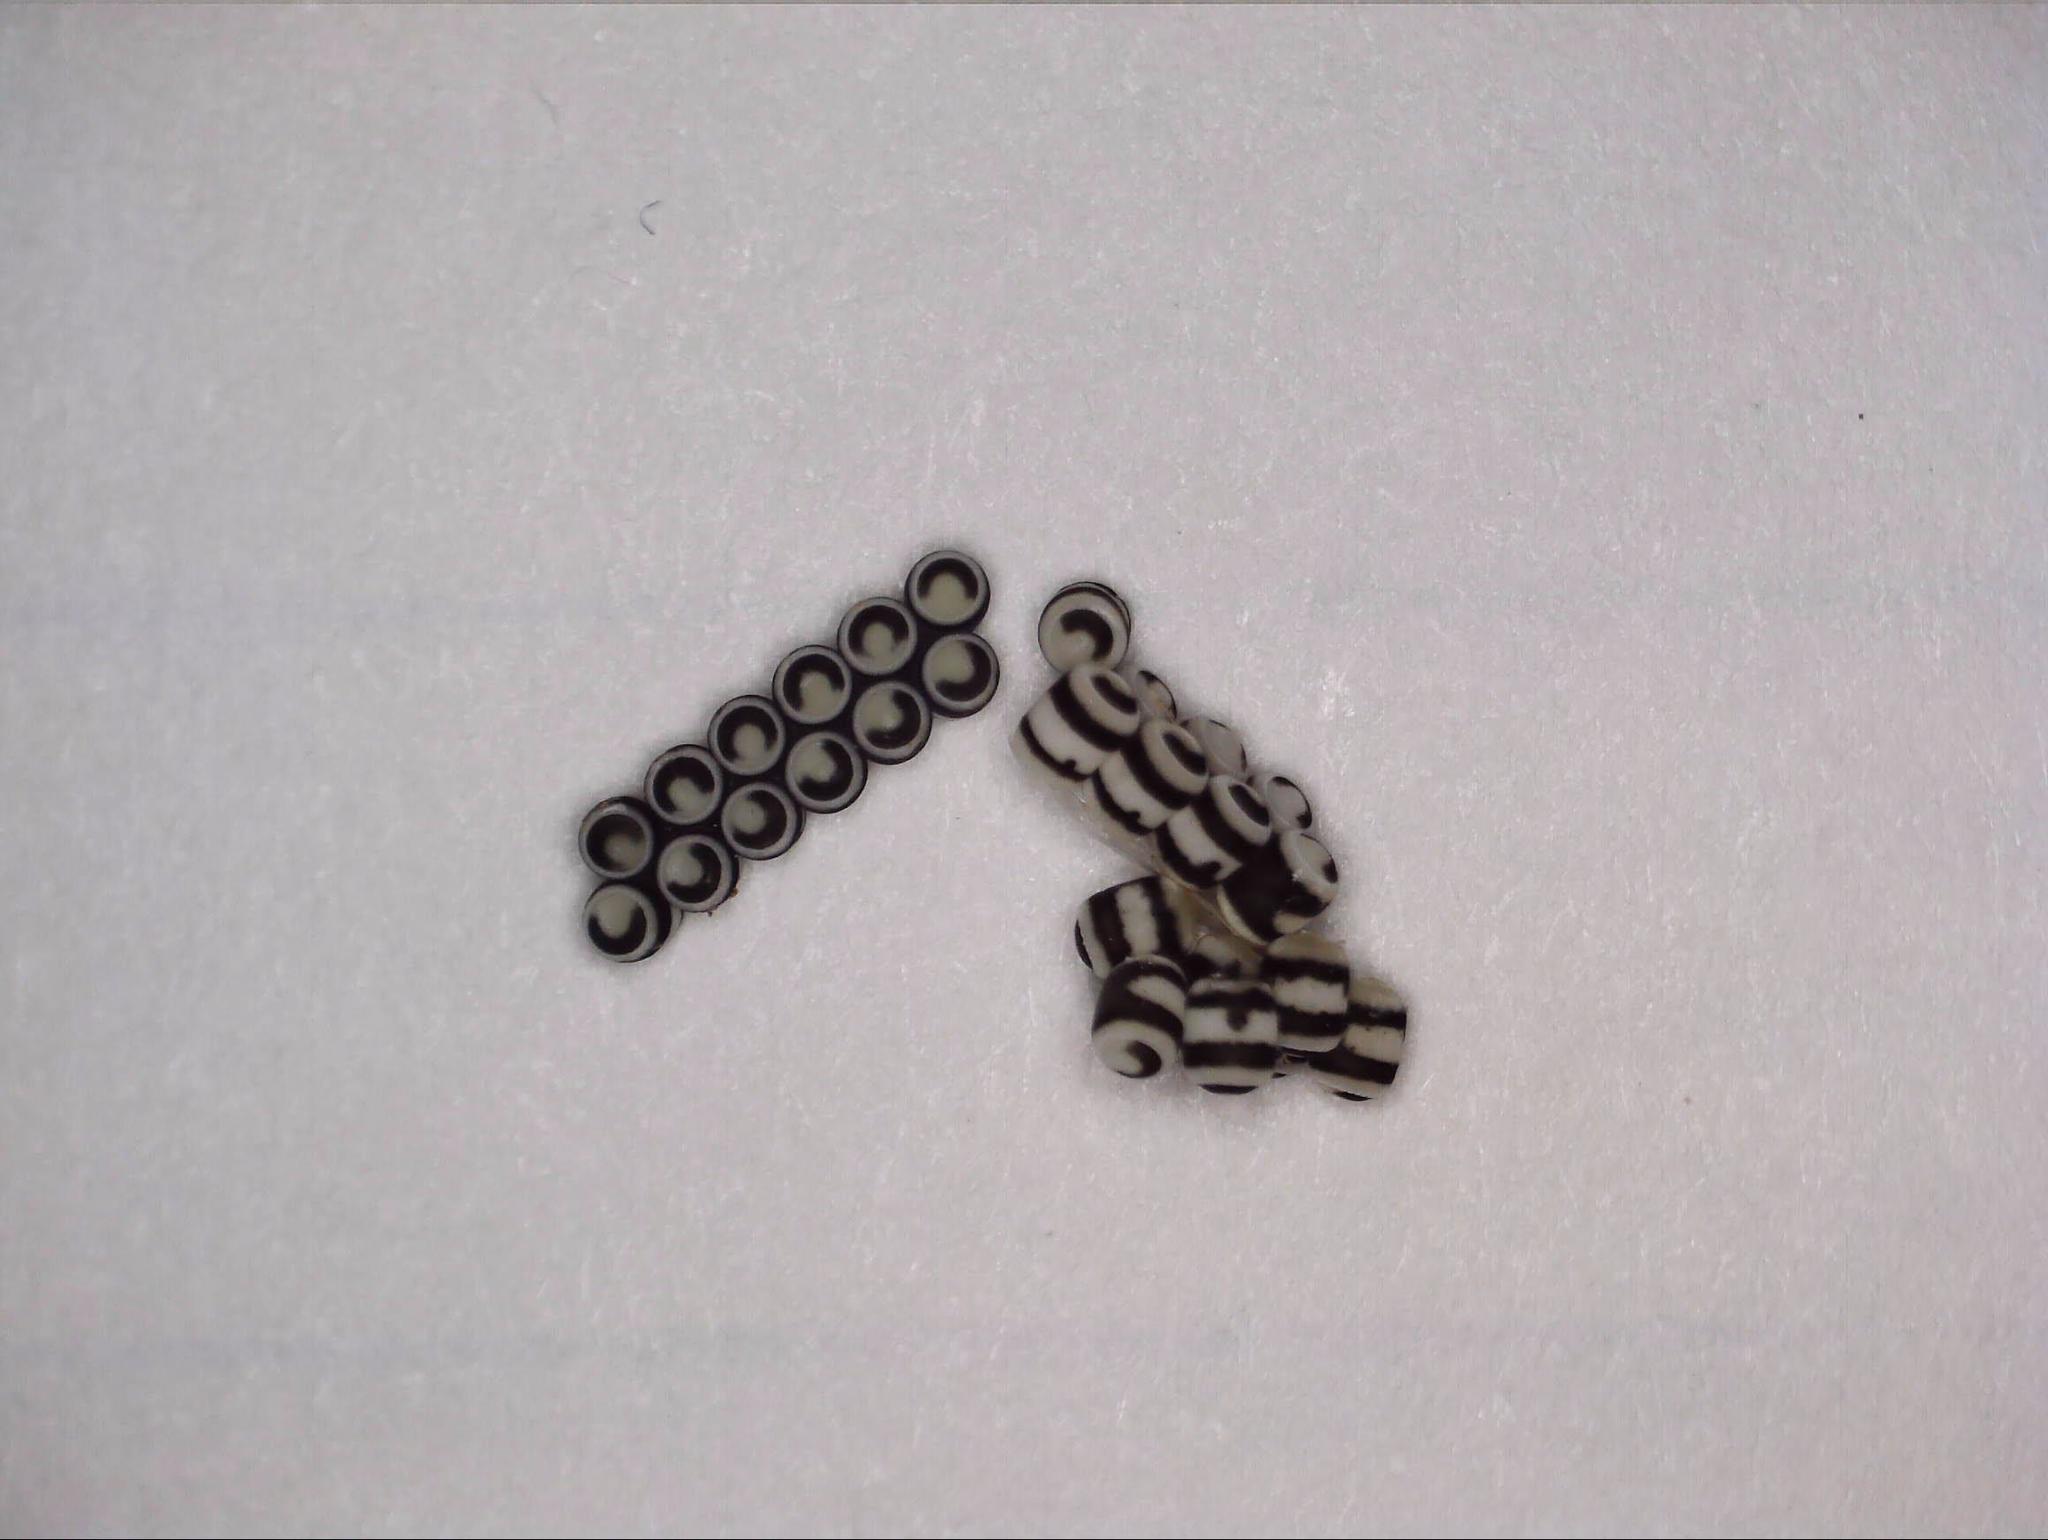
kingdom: Animalia
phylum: Arthropoda
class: Insecta
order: Hemiptera
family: Pentatomidae
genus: Murgantia
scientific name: Murgantia histrionica
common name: Harlequin bug
